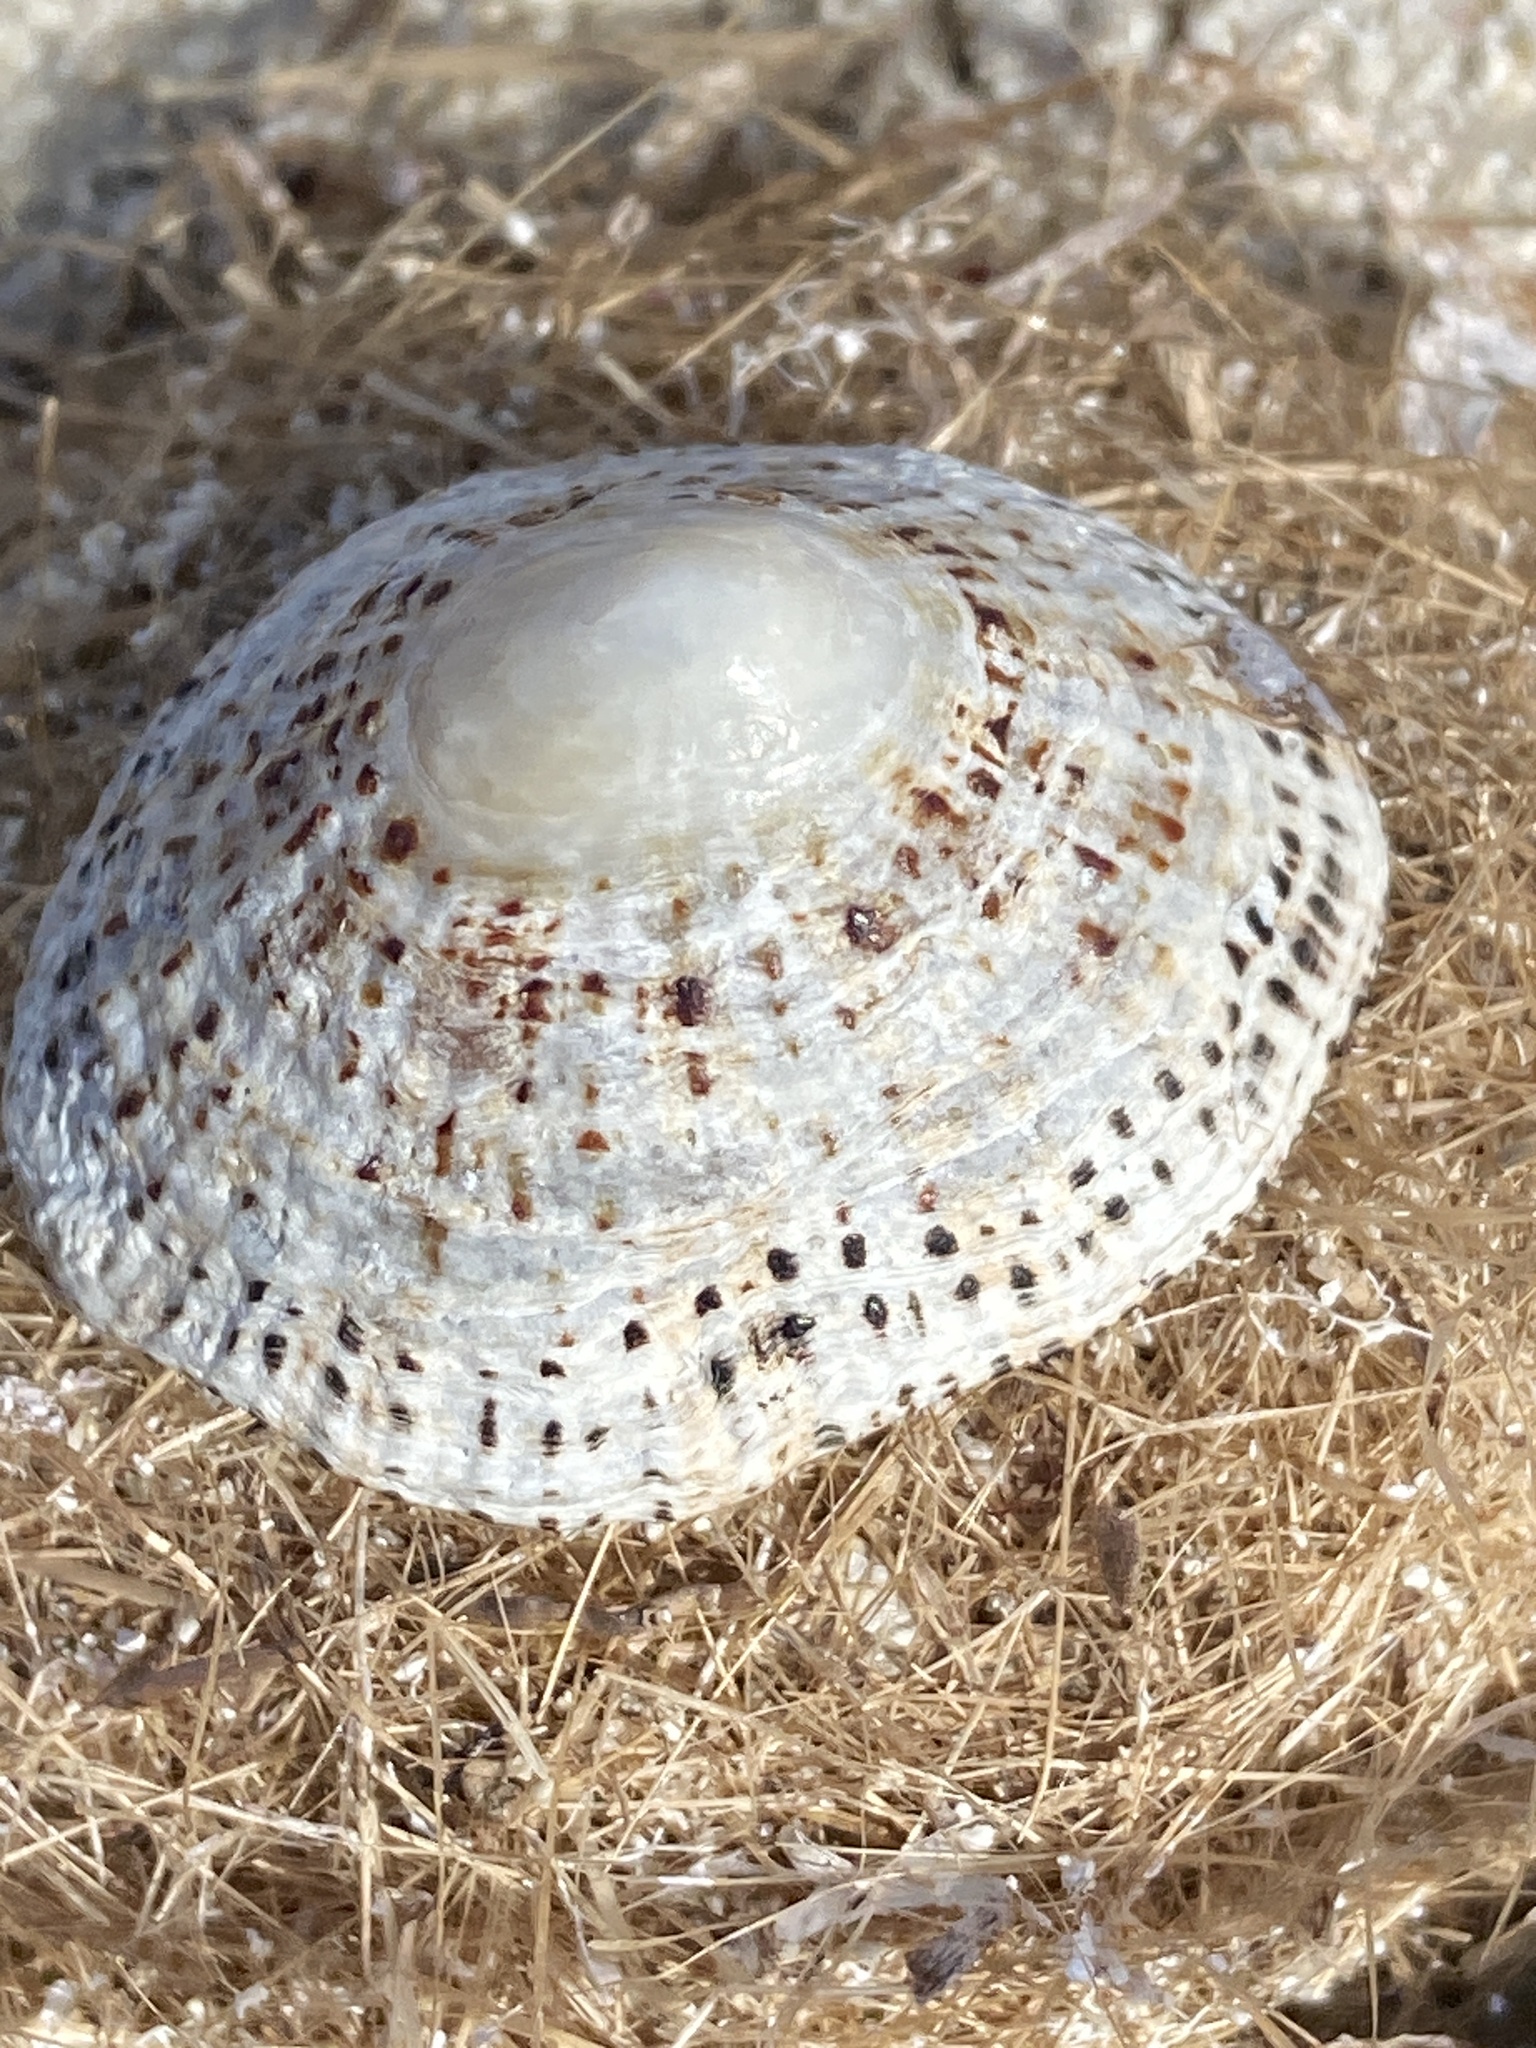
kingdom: Animalia
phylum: Mollusca
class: Gastropoda
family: Patellidae
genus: Patella
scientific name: Patella rustica
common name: Lusitanian limpet
